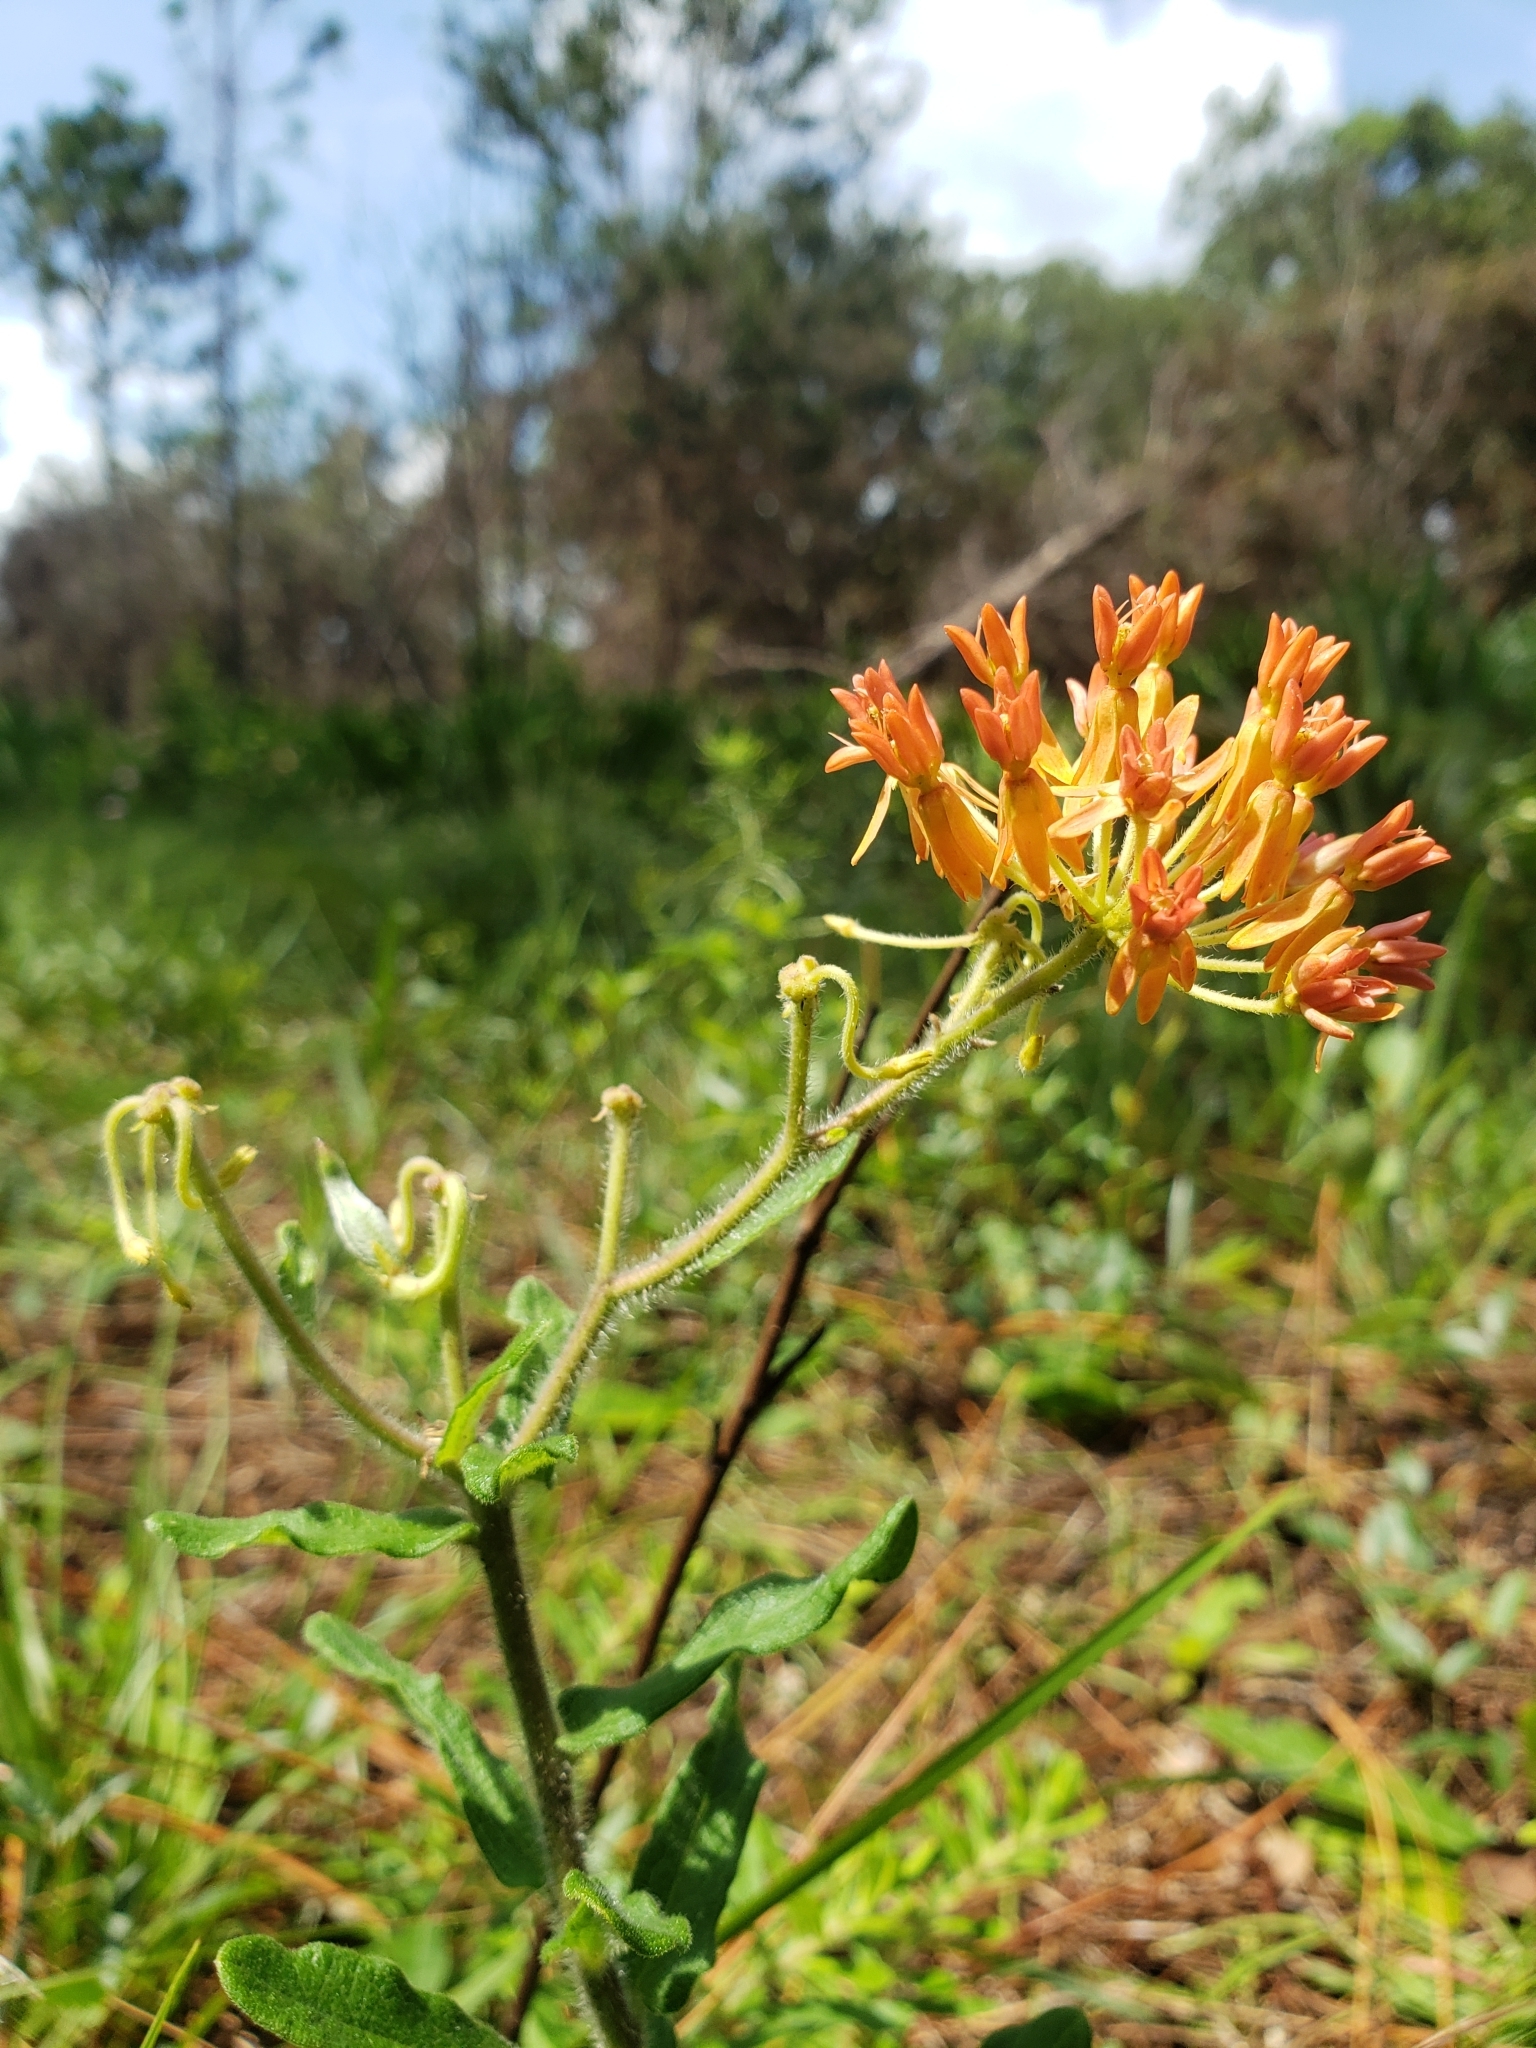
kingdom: Plantae
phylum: Tracheophyta
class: Magnoliopsida
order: Gentianales
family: Apocynaceae
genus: Asclepias
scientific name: Asclepias tuberosa
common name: Butterfly milkweed
